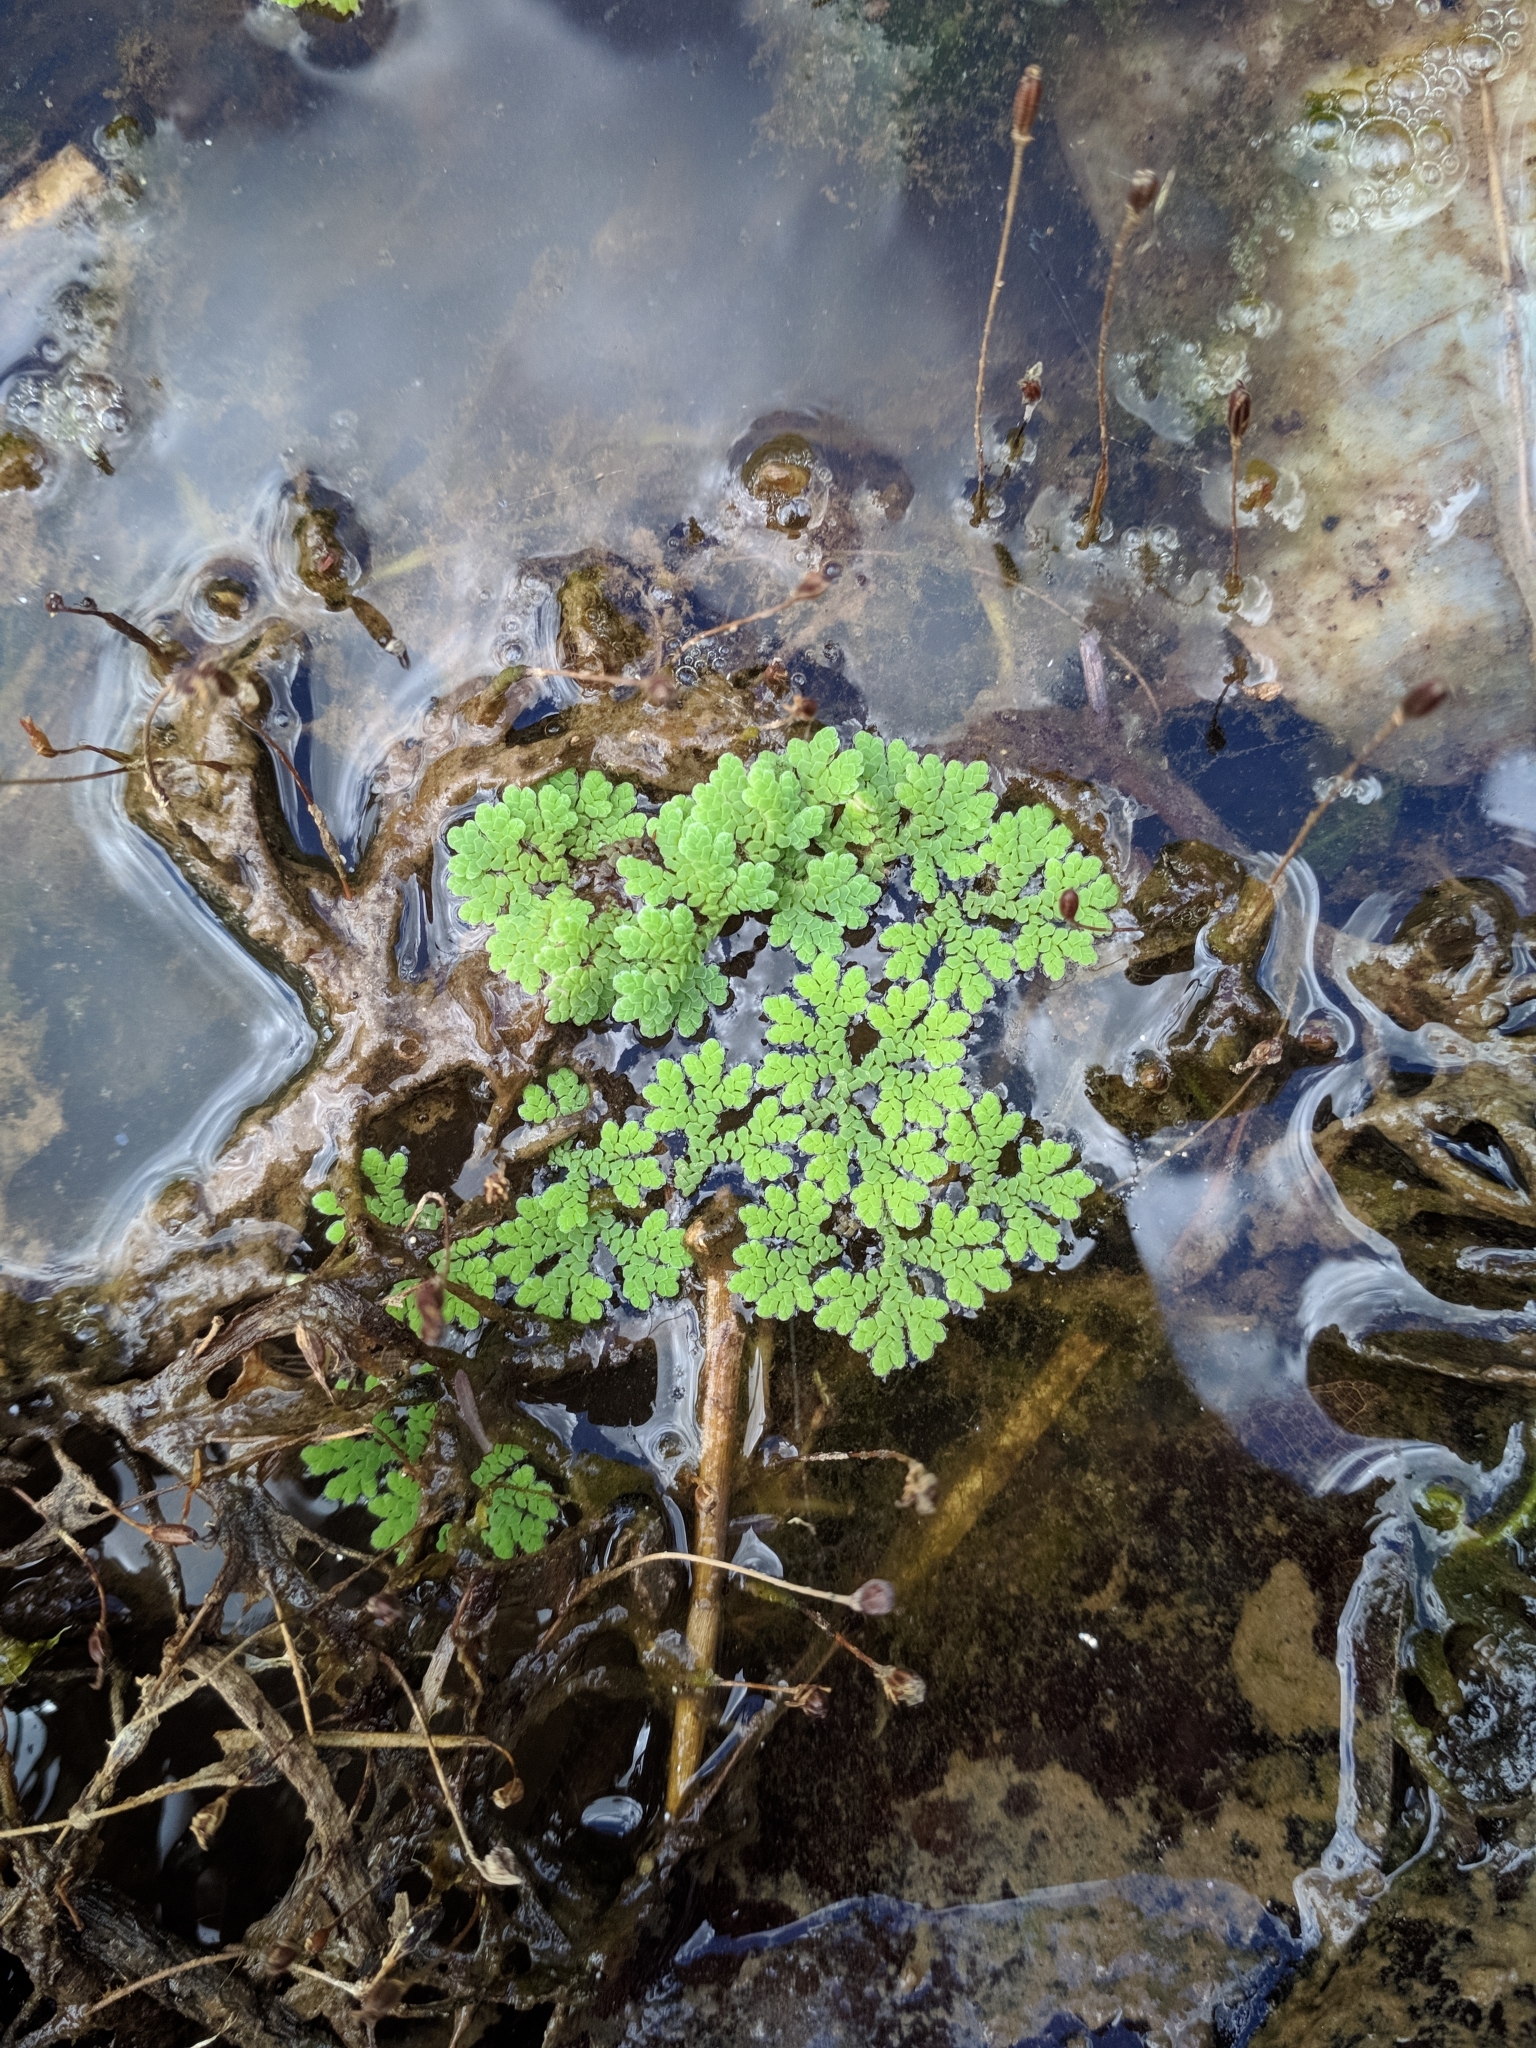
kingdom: Plantae
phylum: Tracheophyta
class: Polypodiopsida
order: Salviniales
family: Salviniaceae
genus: Azolla
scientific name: Azolla filiculoides
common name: Water fern
